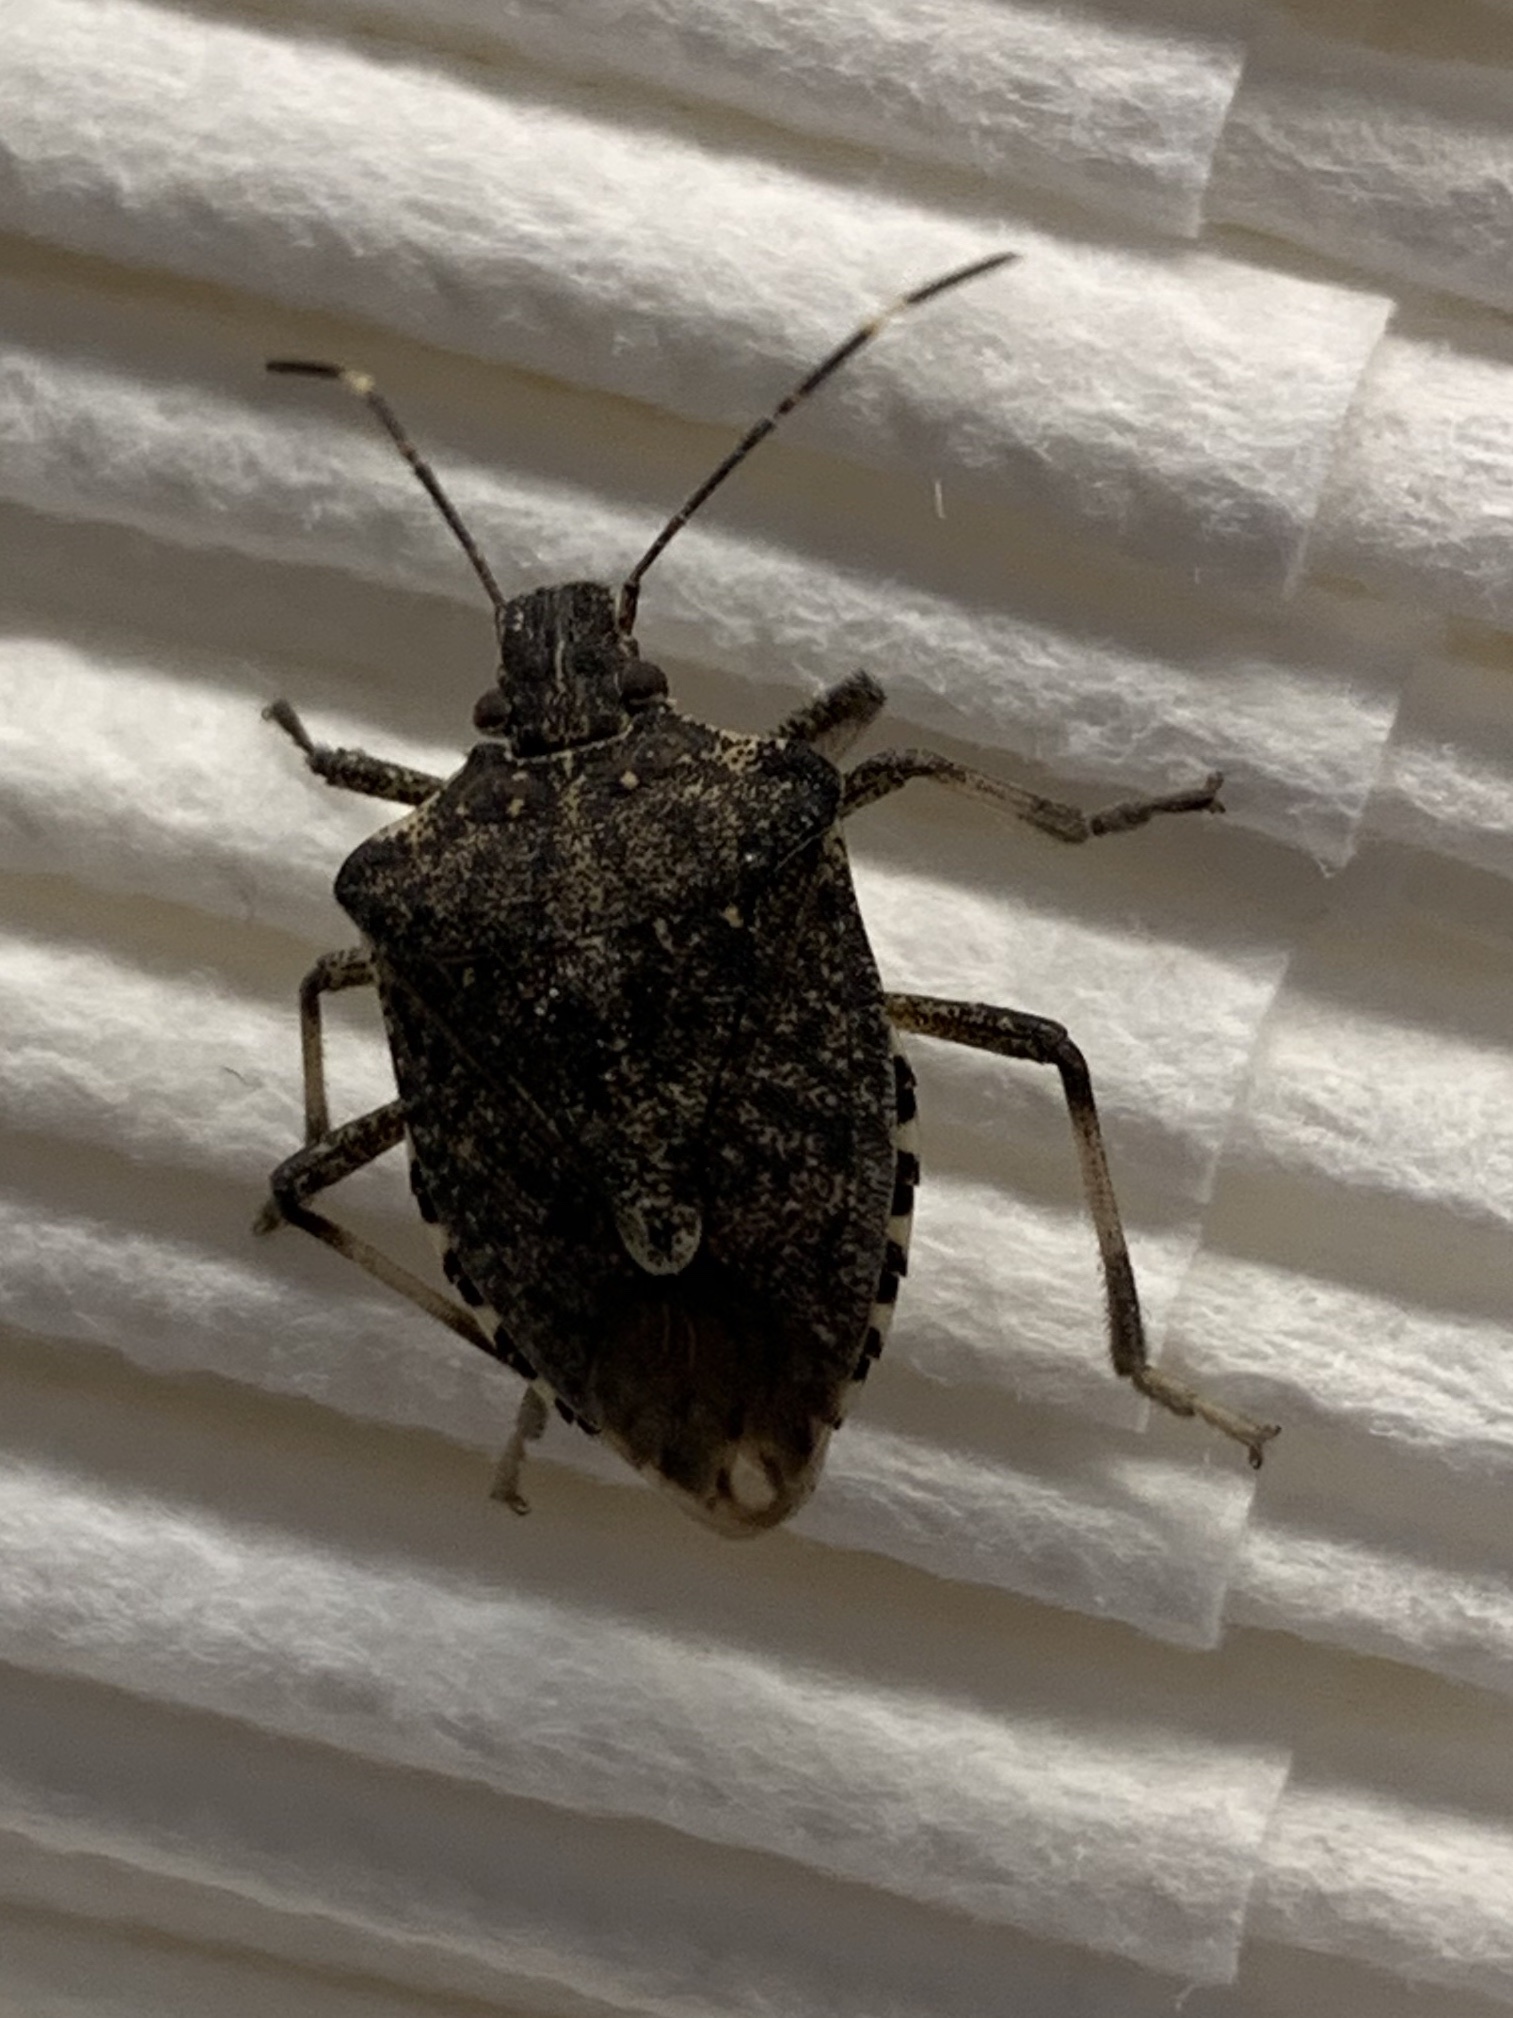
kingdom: Animalia
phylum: Arthropoda
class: Insecta
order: Hemiptera
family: Pentatomidae
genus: Halyomorpha
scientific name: Halyomorpha halys
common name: Brown marmorated stink bug
